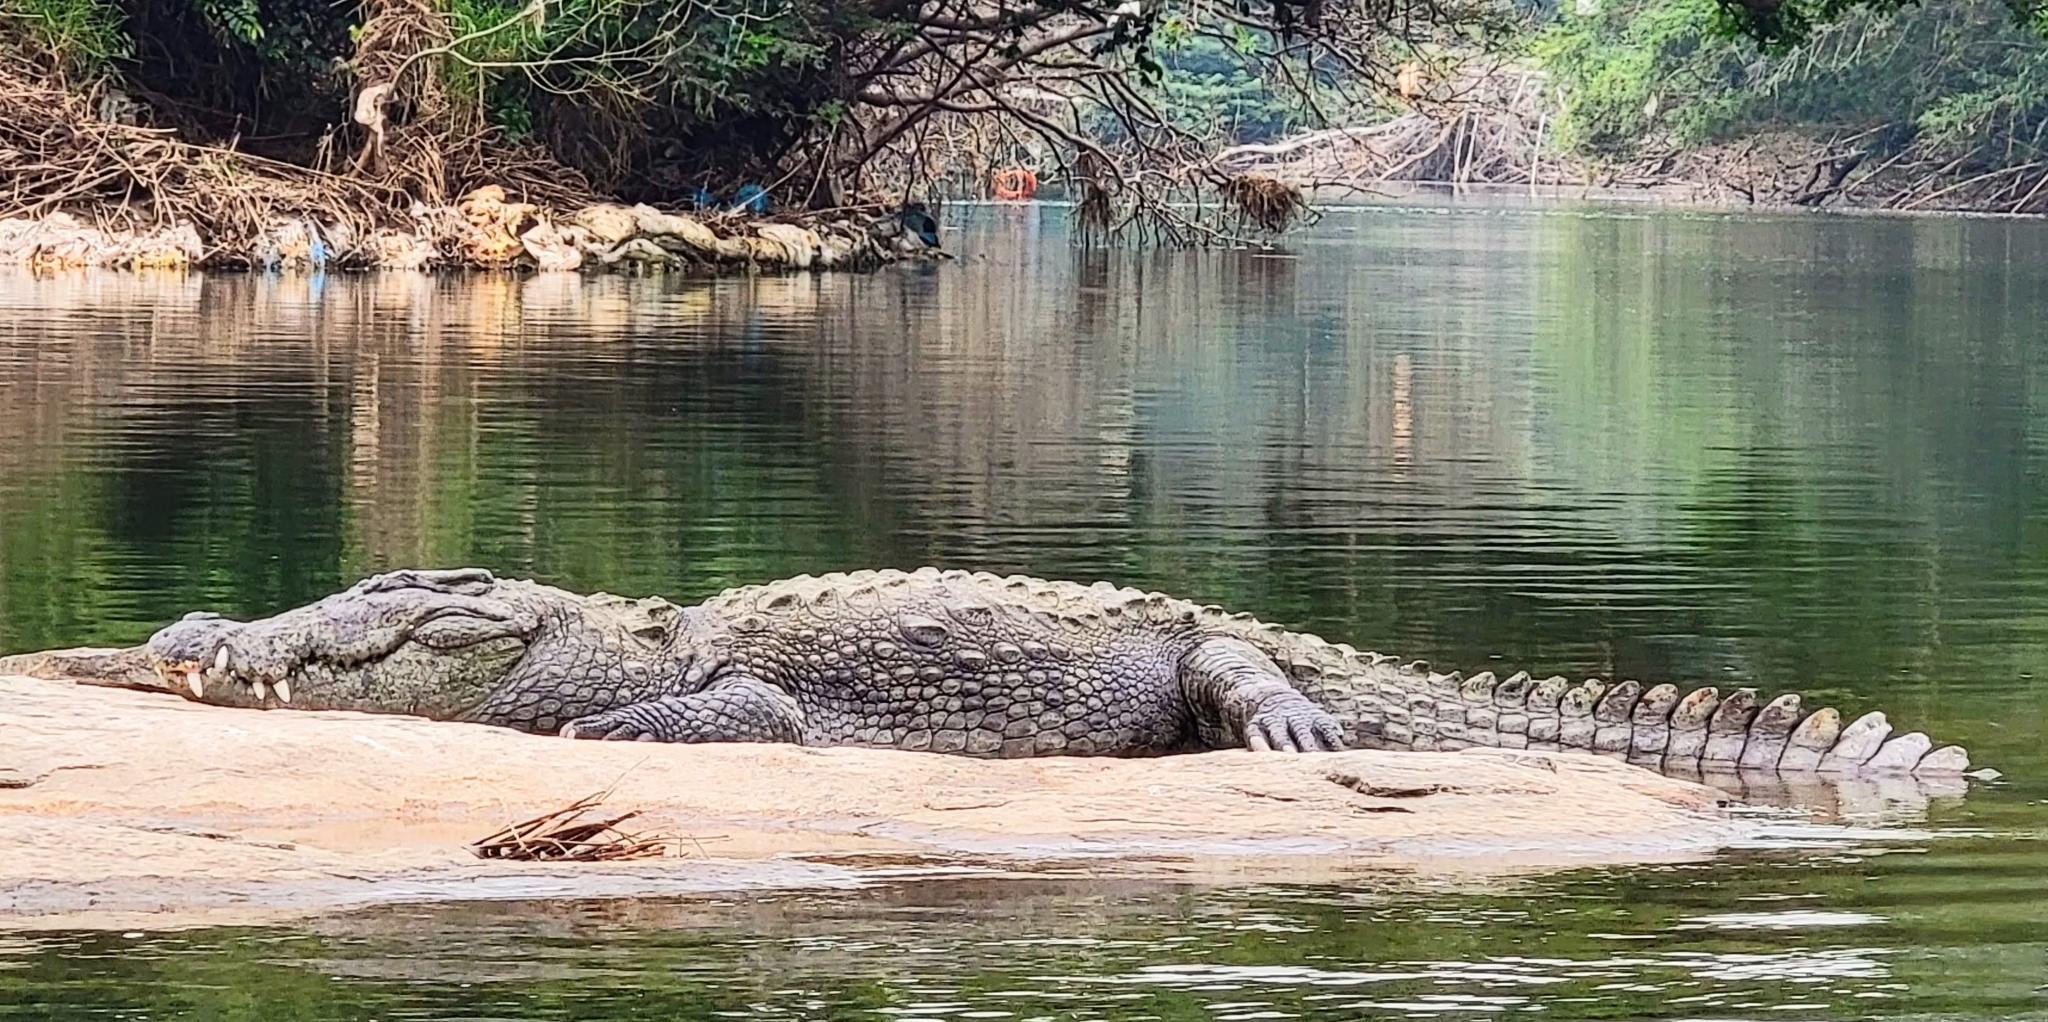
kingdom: Animalia
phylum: Chordata
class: Crocodylia
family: Crocodylidae
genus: Crocodylus
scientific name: Crocodylus palustris
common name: Mugger crocodile
